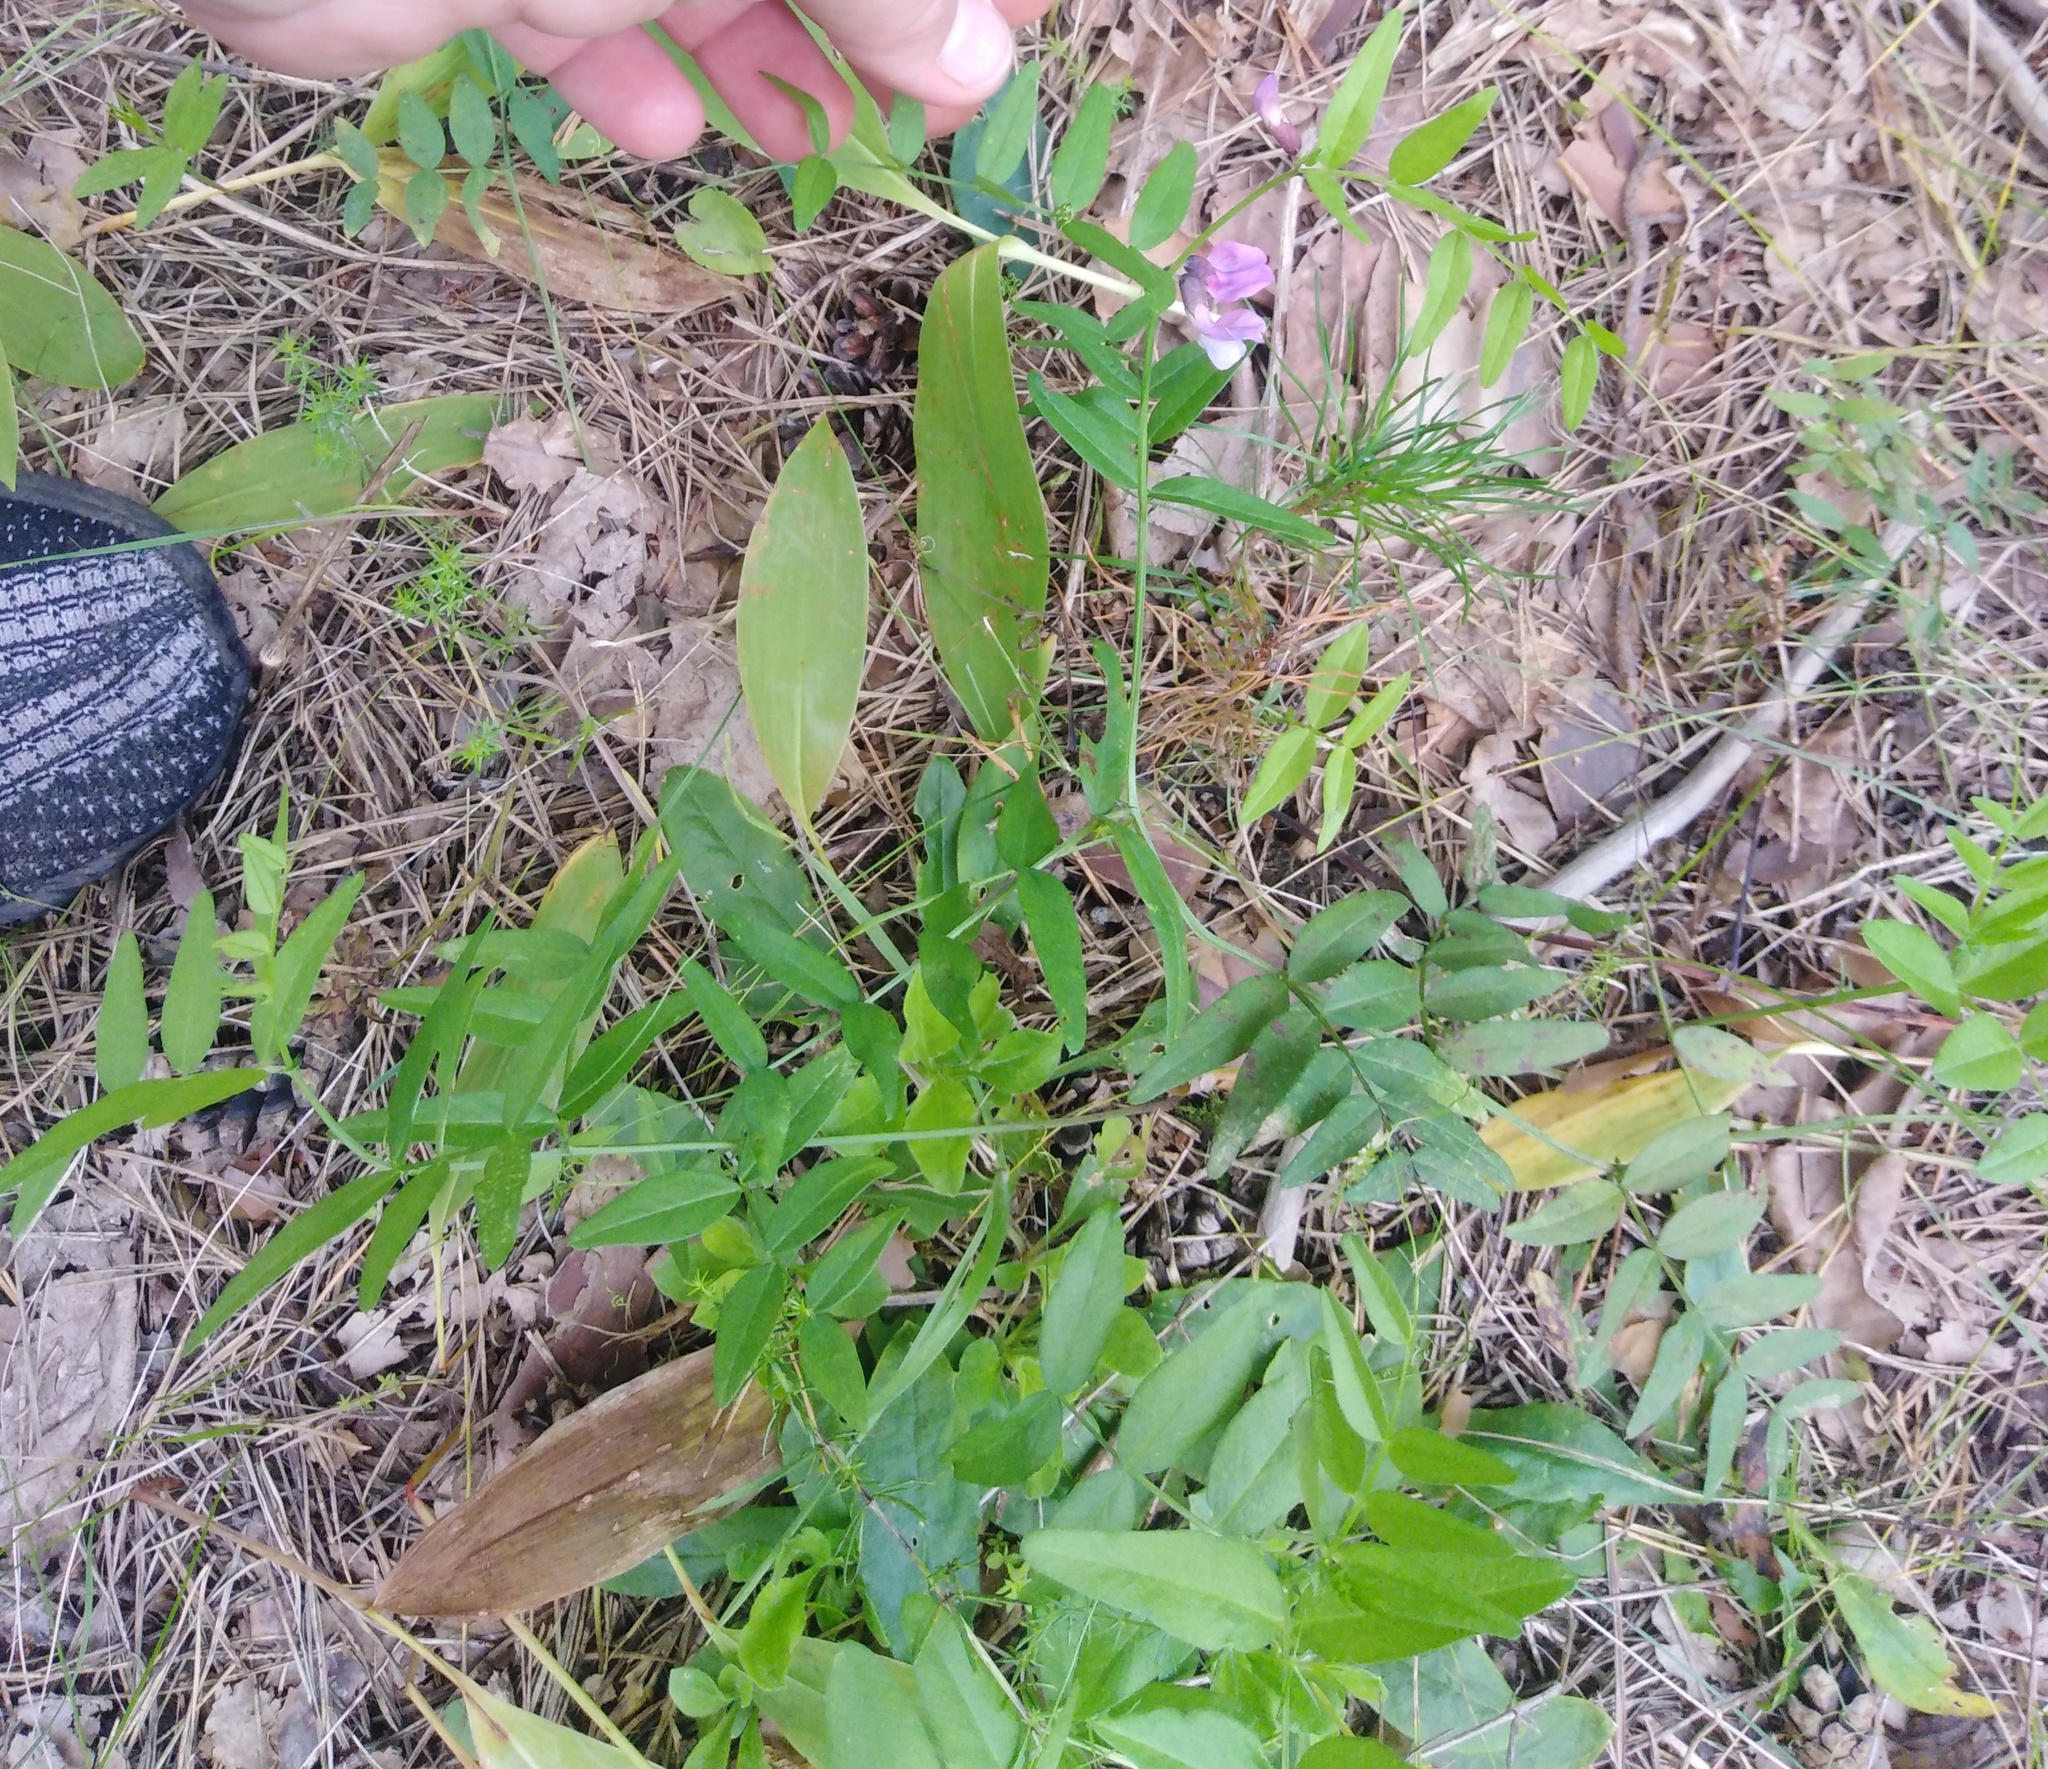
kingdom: Plantae
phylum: Tracheophyta
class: Magnoliopsida
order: Fabales
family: Fabaceae
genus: Vicia
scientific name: Vicia sepium
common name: Bush vetch
